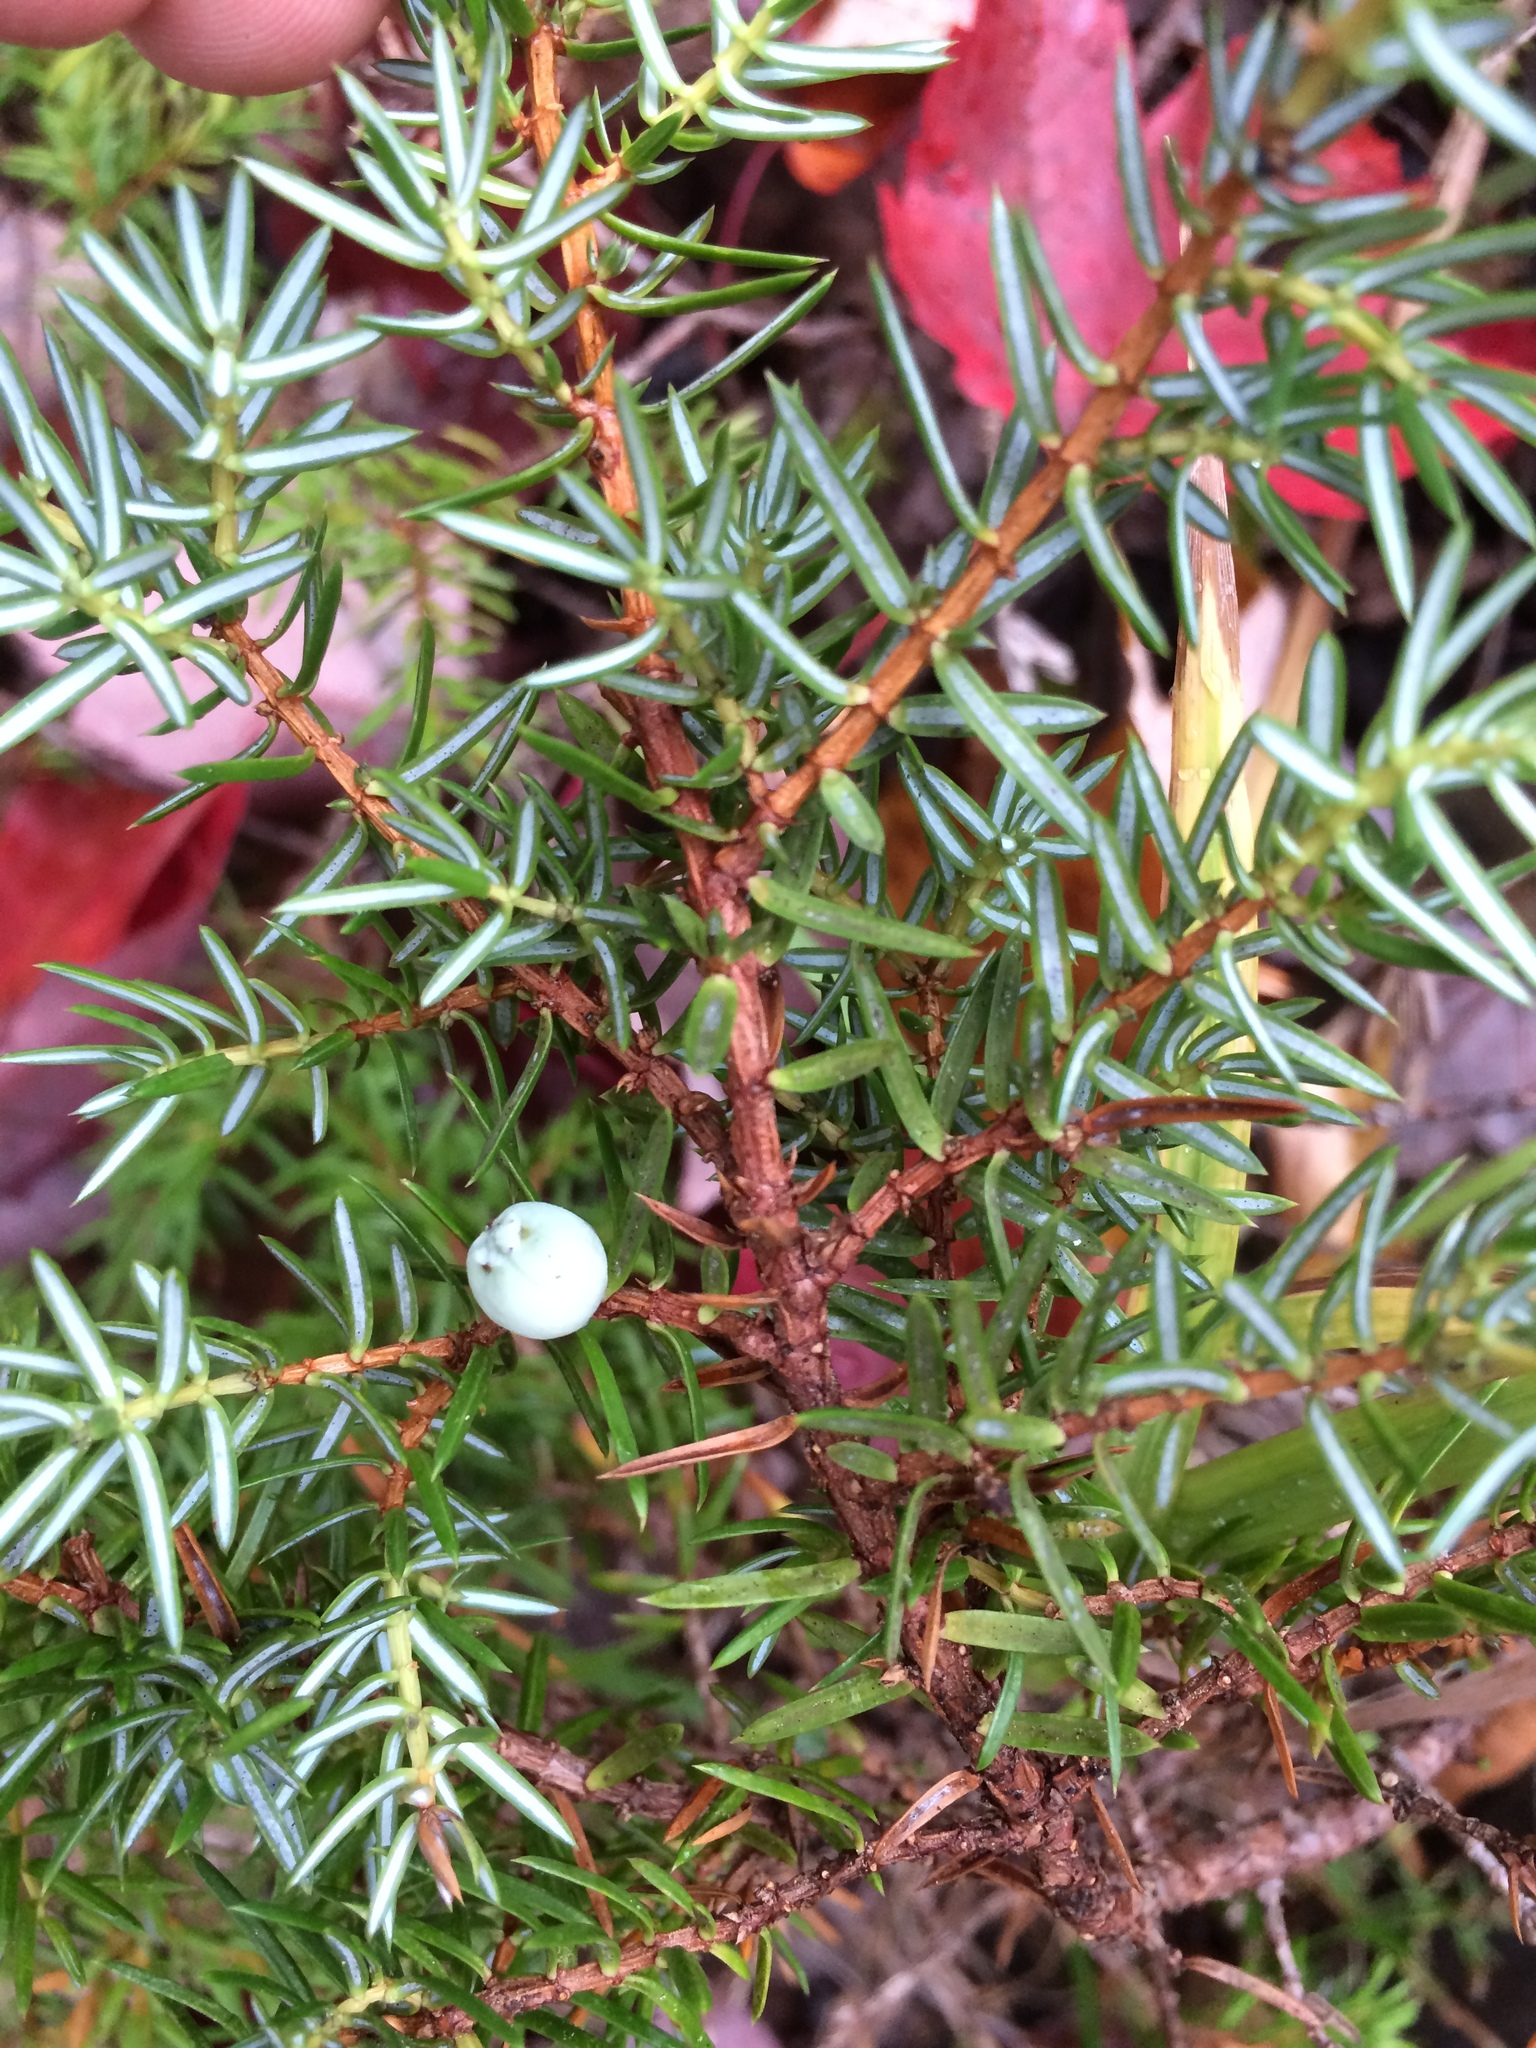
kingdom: Plantae
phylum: Tracheophyta
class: Pinopsida
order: Pinales
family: Cupressaceae
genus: Juniperus
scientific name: Juniperus communis
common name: Common juniper
